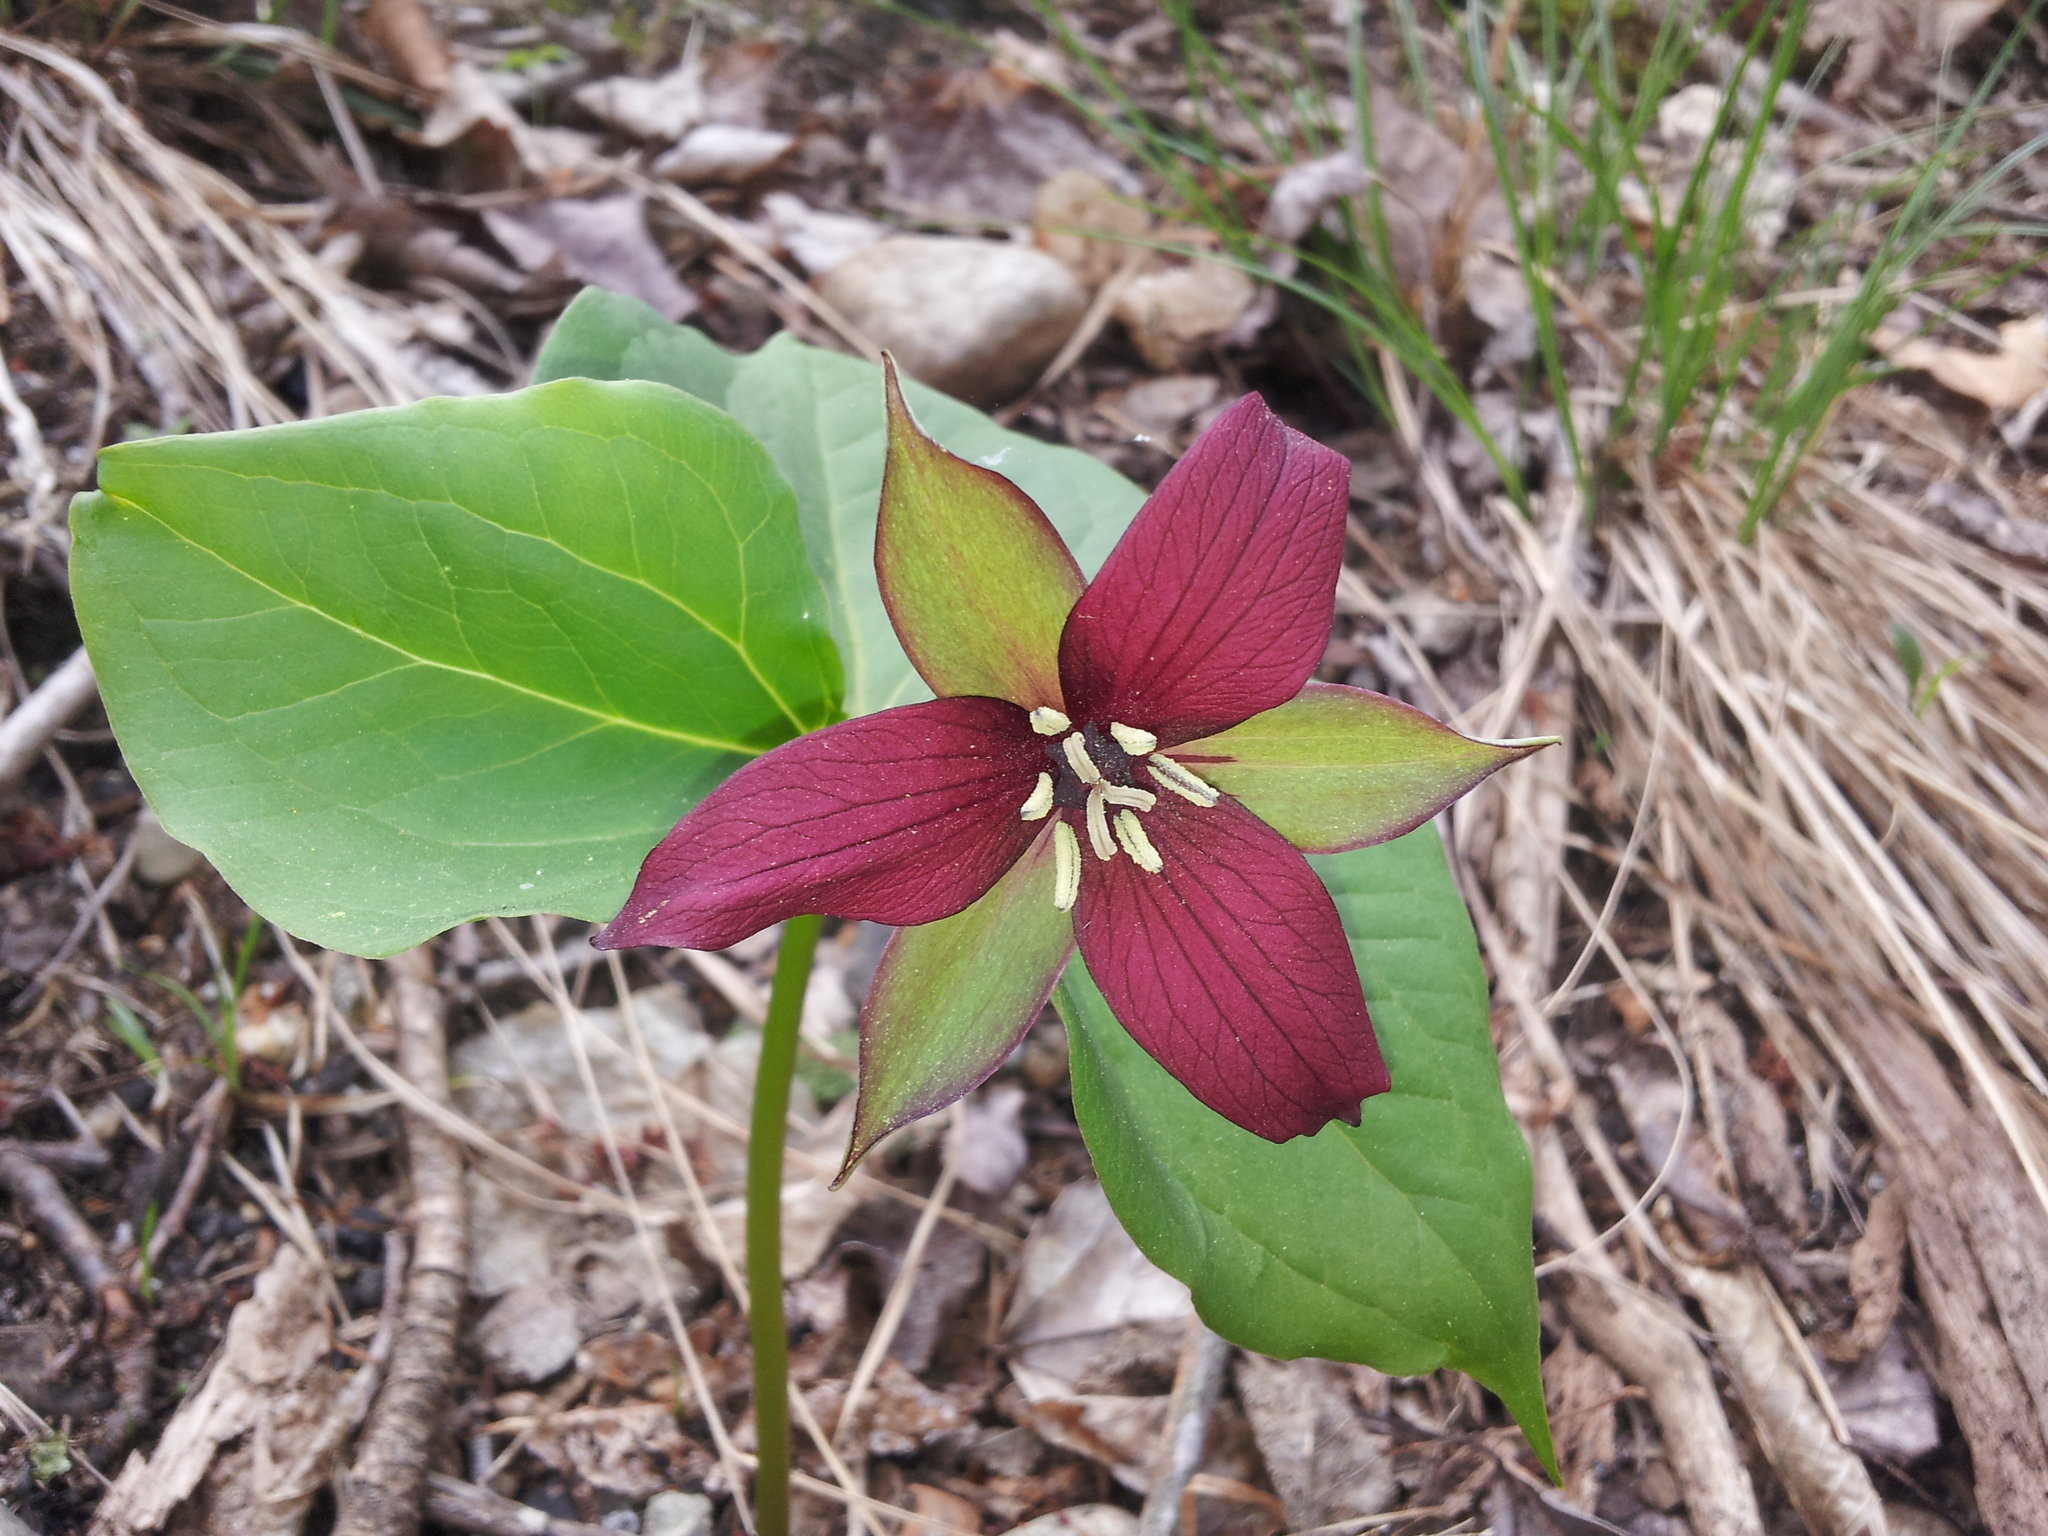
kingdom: Plantae
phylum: Tracheophyta
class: Liliopsida
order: Liliales
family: Melanthiaceae
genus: Trillium
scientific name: Trillium erectum
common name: Purple trillium
